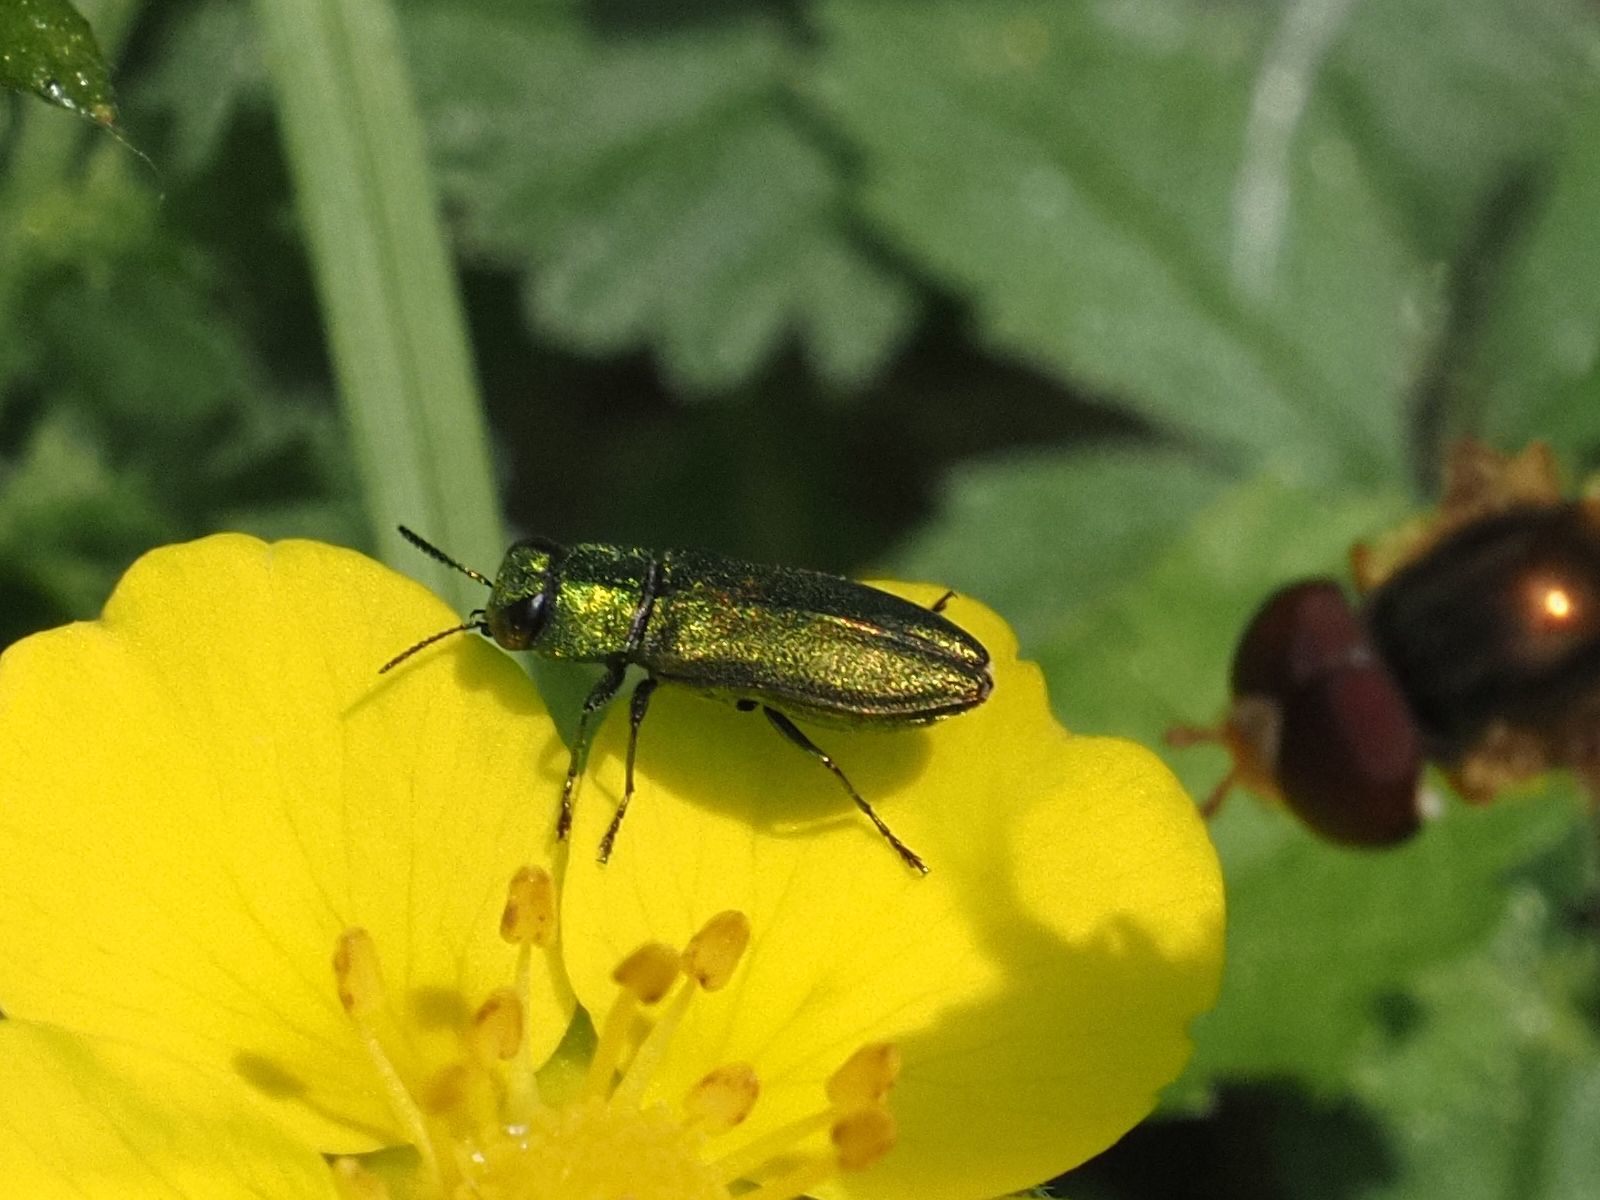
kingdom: Animalia
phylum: Arthropoda
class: Insecta
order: Coleoptera
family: Buprestidae
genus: Anthaxia
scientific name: Anthaxia nitidula
